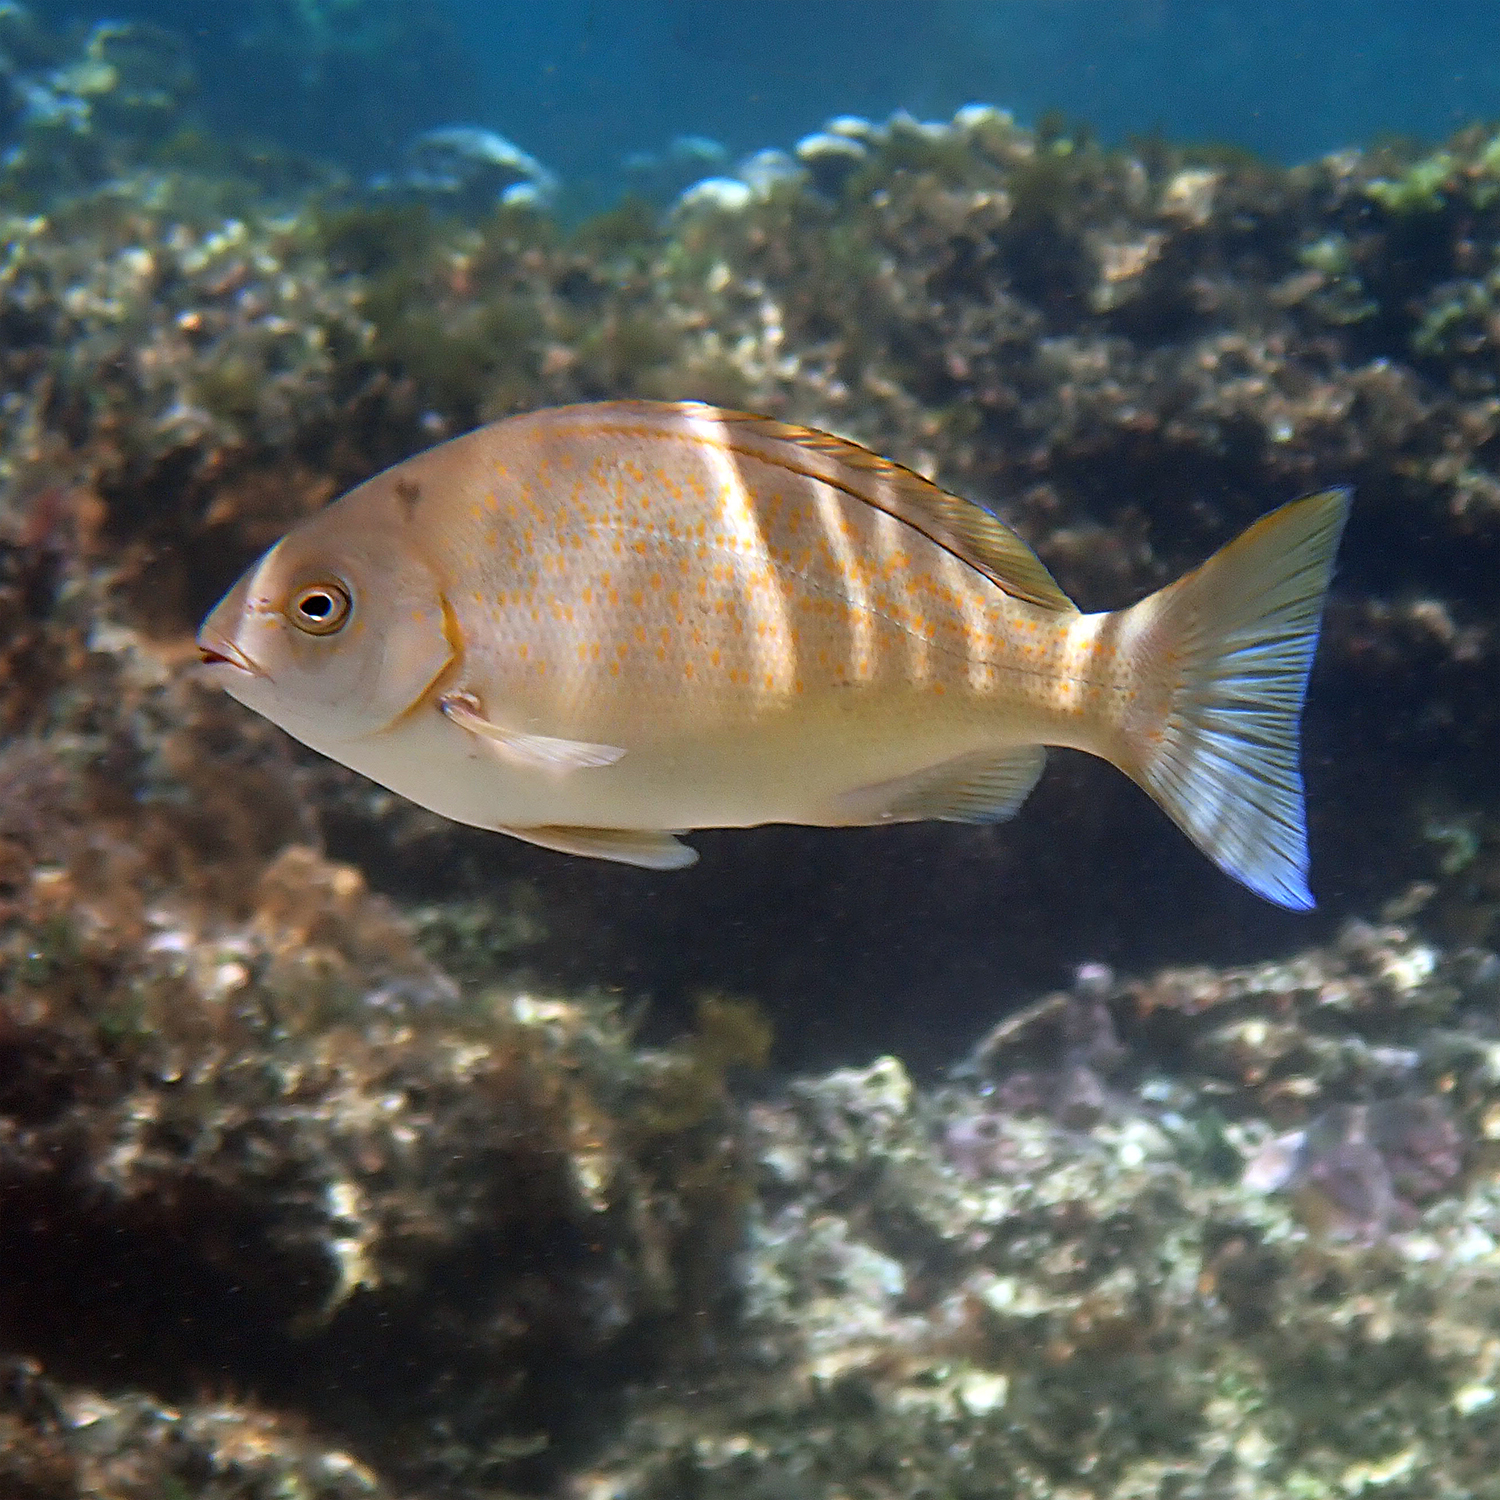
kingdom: Animalia
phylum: Chordata
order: Perciformes
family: Kyphosidae
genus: Girella
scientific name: Girella cyanea
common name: Bluefish
